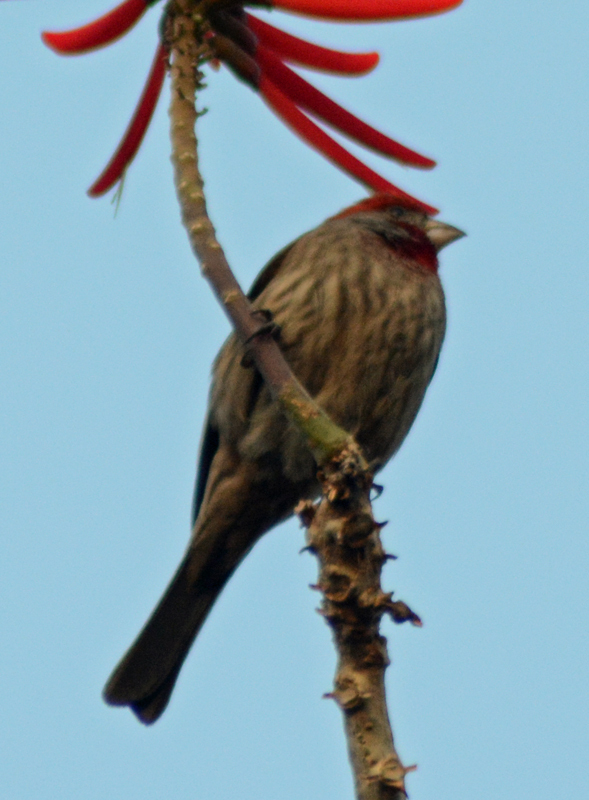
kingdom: Animalia
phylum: Chordata
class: Aves
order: Passeriformes
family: Fringillidae
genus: Haemorhous
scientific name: Haemorhous mexicanus
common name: House finch
